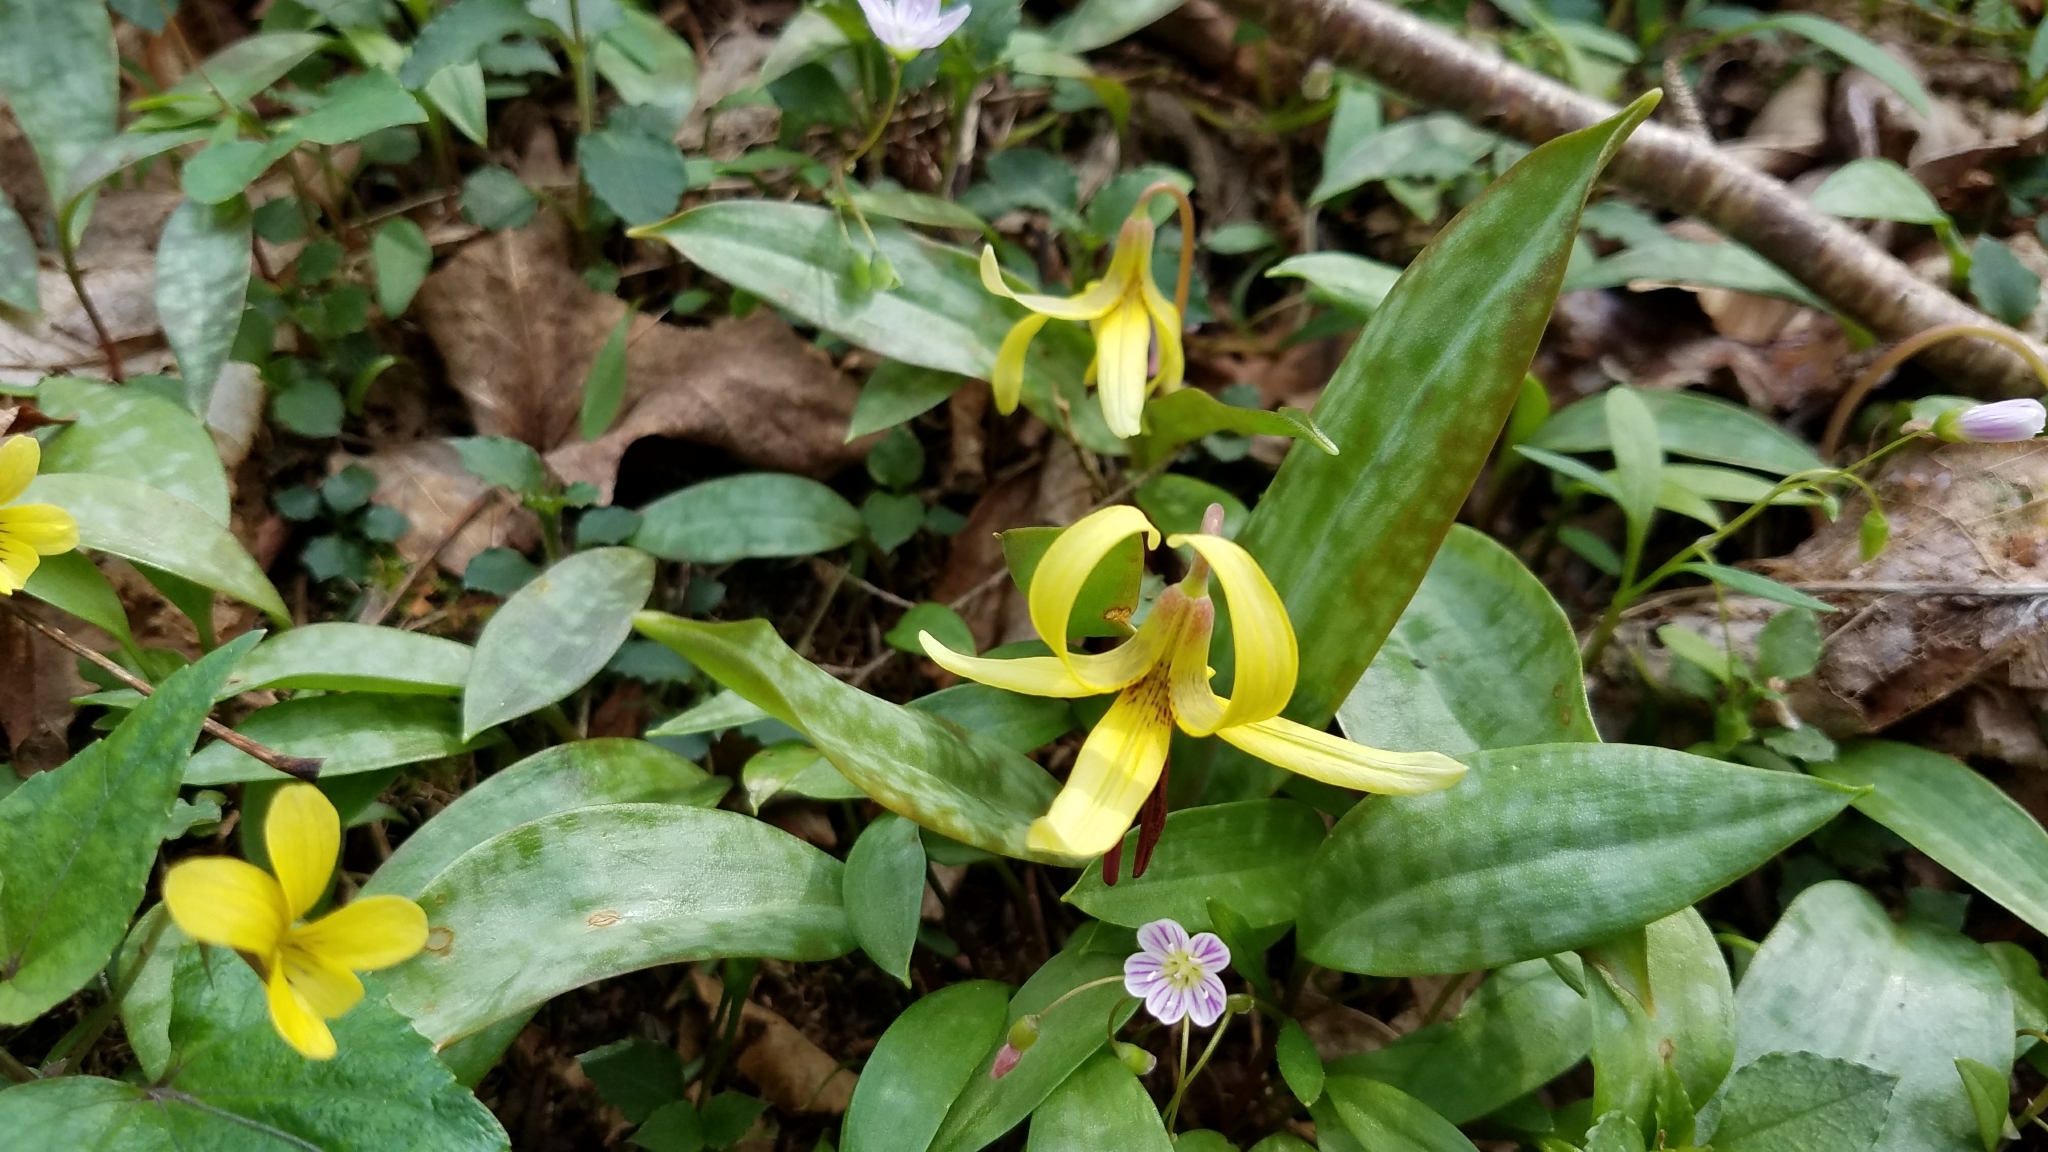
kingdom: Plantae
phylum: Tracheophyta
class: Liliopsida
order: Liliales
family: Liliaceae
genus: Erythronium
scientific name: Erythronium umbilicatum
